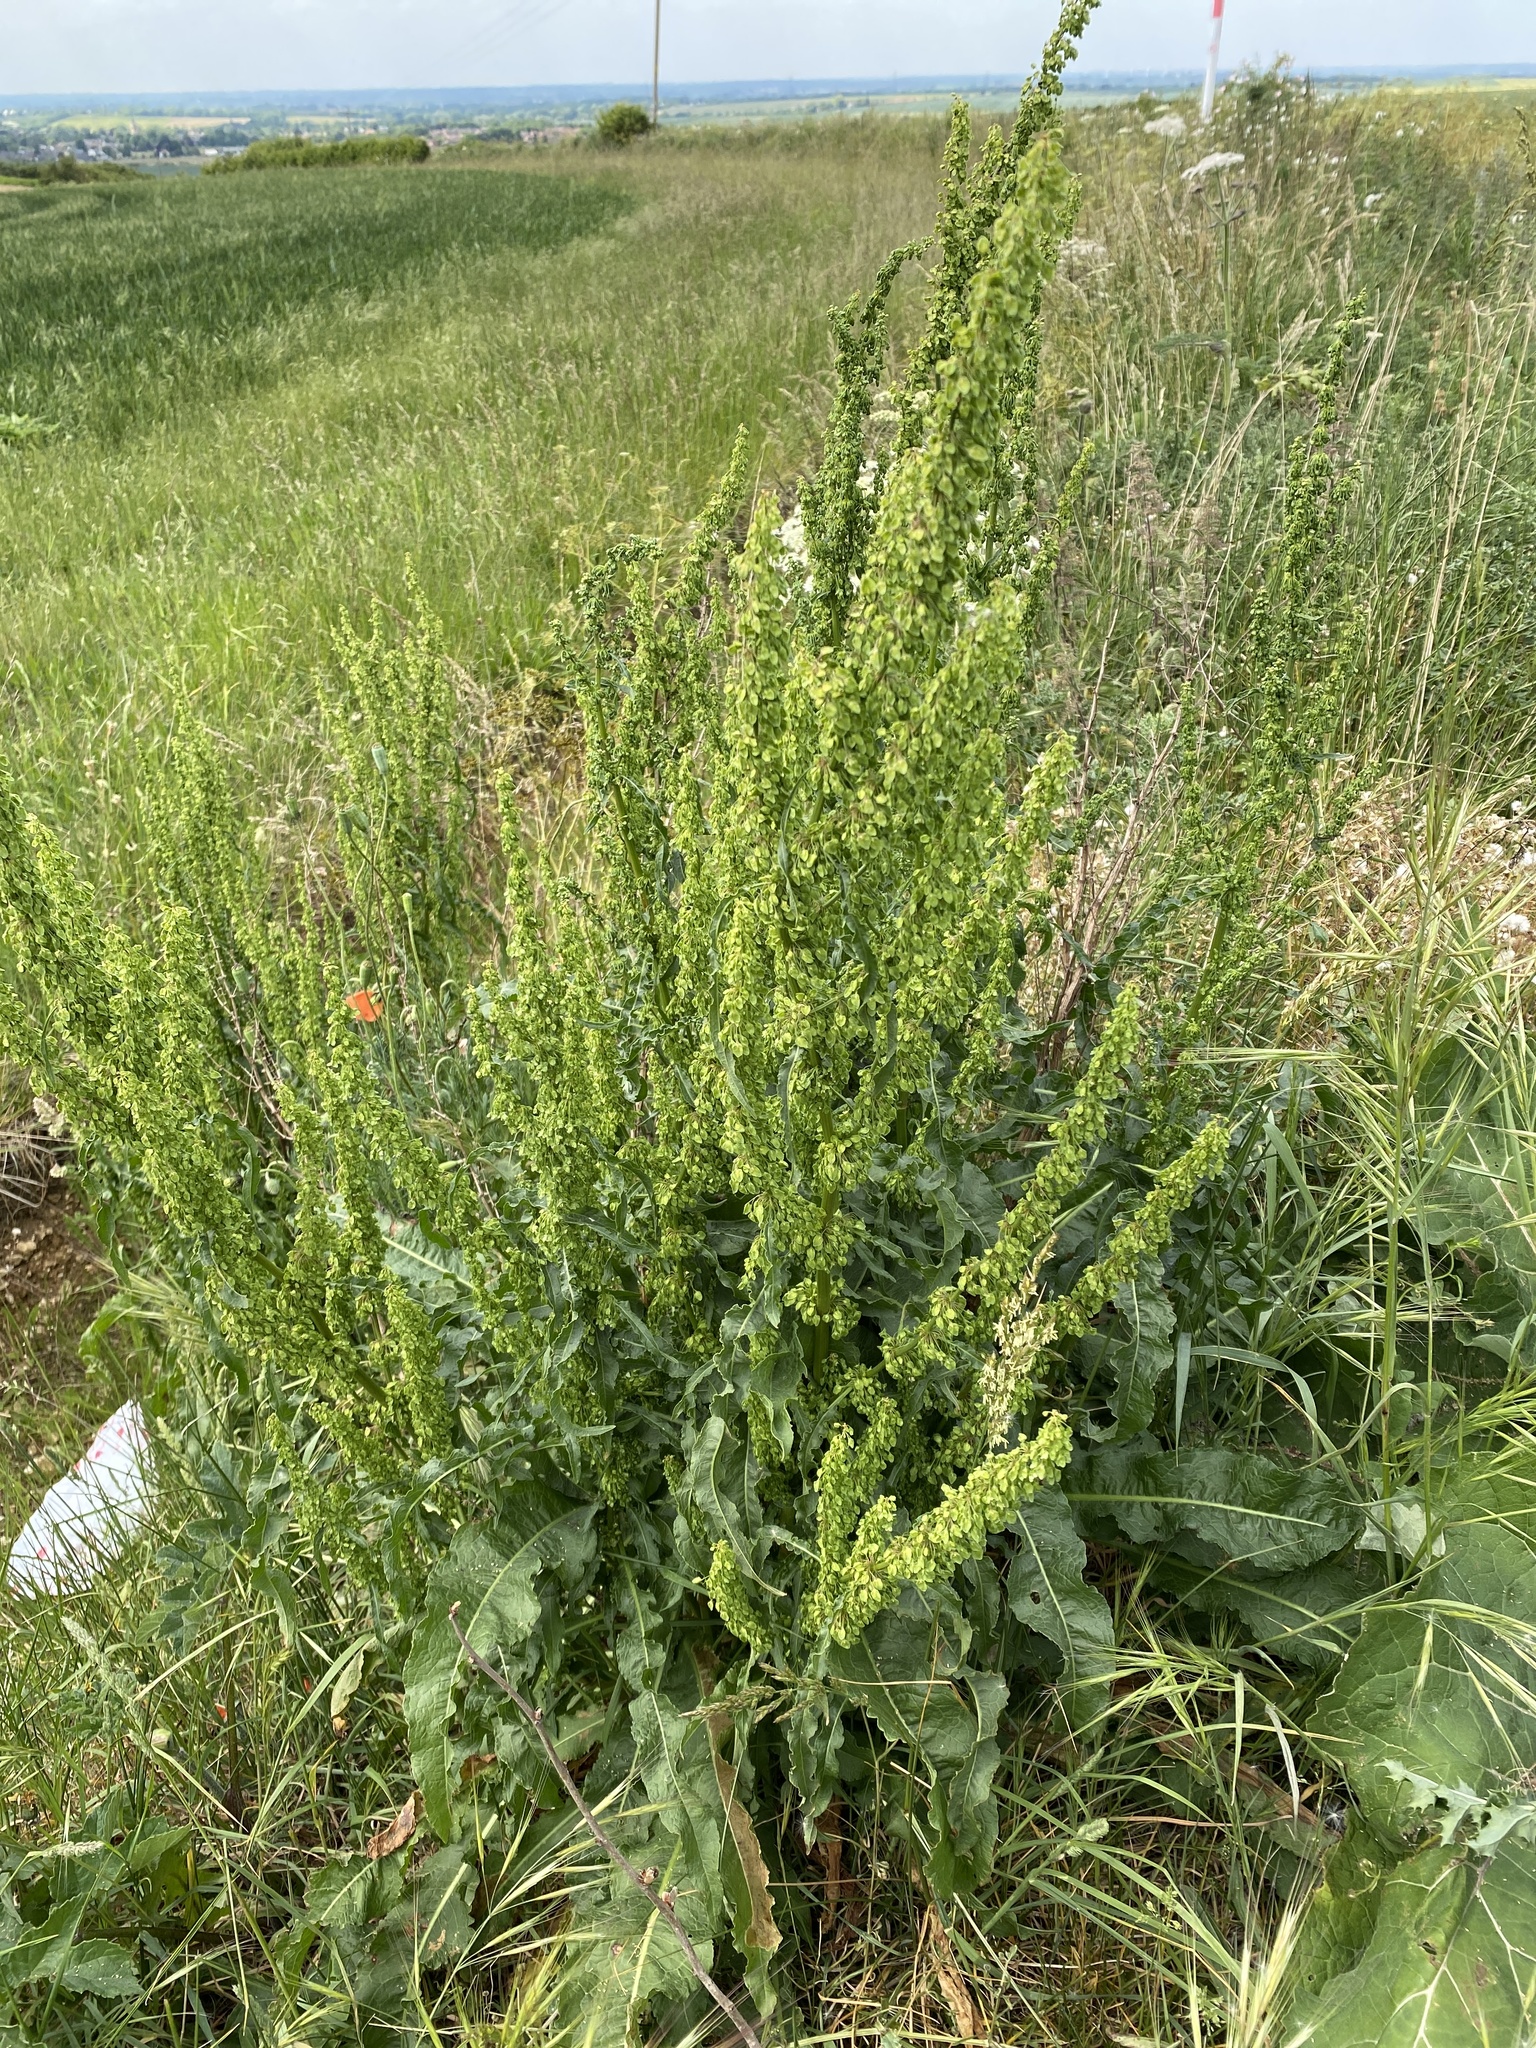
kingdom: Plantae
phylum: Tracheophyta
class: Magnoliopsida
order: Caryophyllales
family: Polygonaceae
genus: Rumex
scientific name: Rumex crispus
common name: Curled dock
